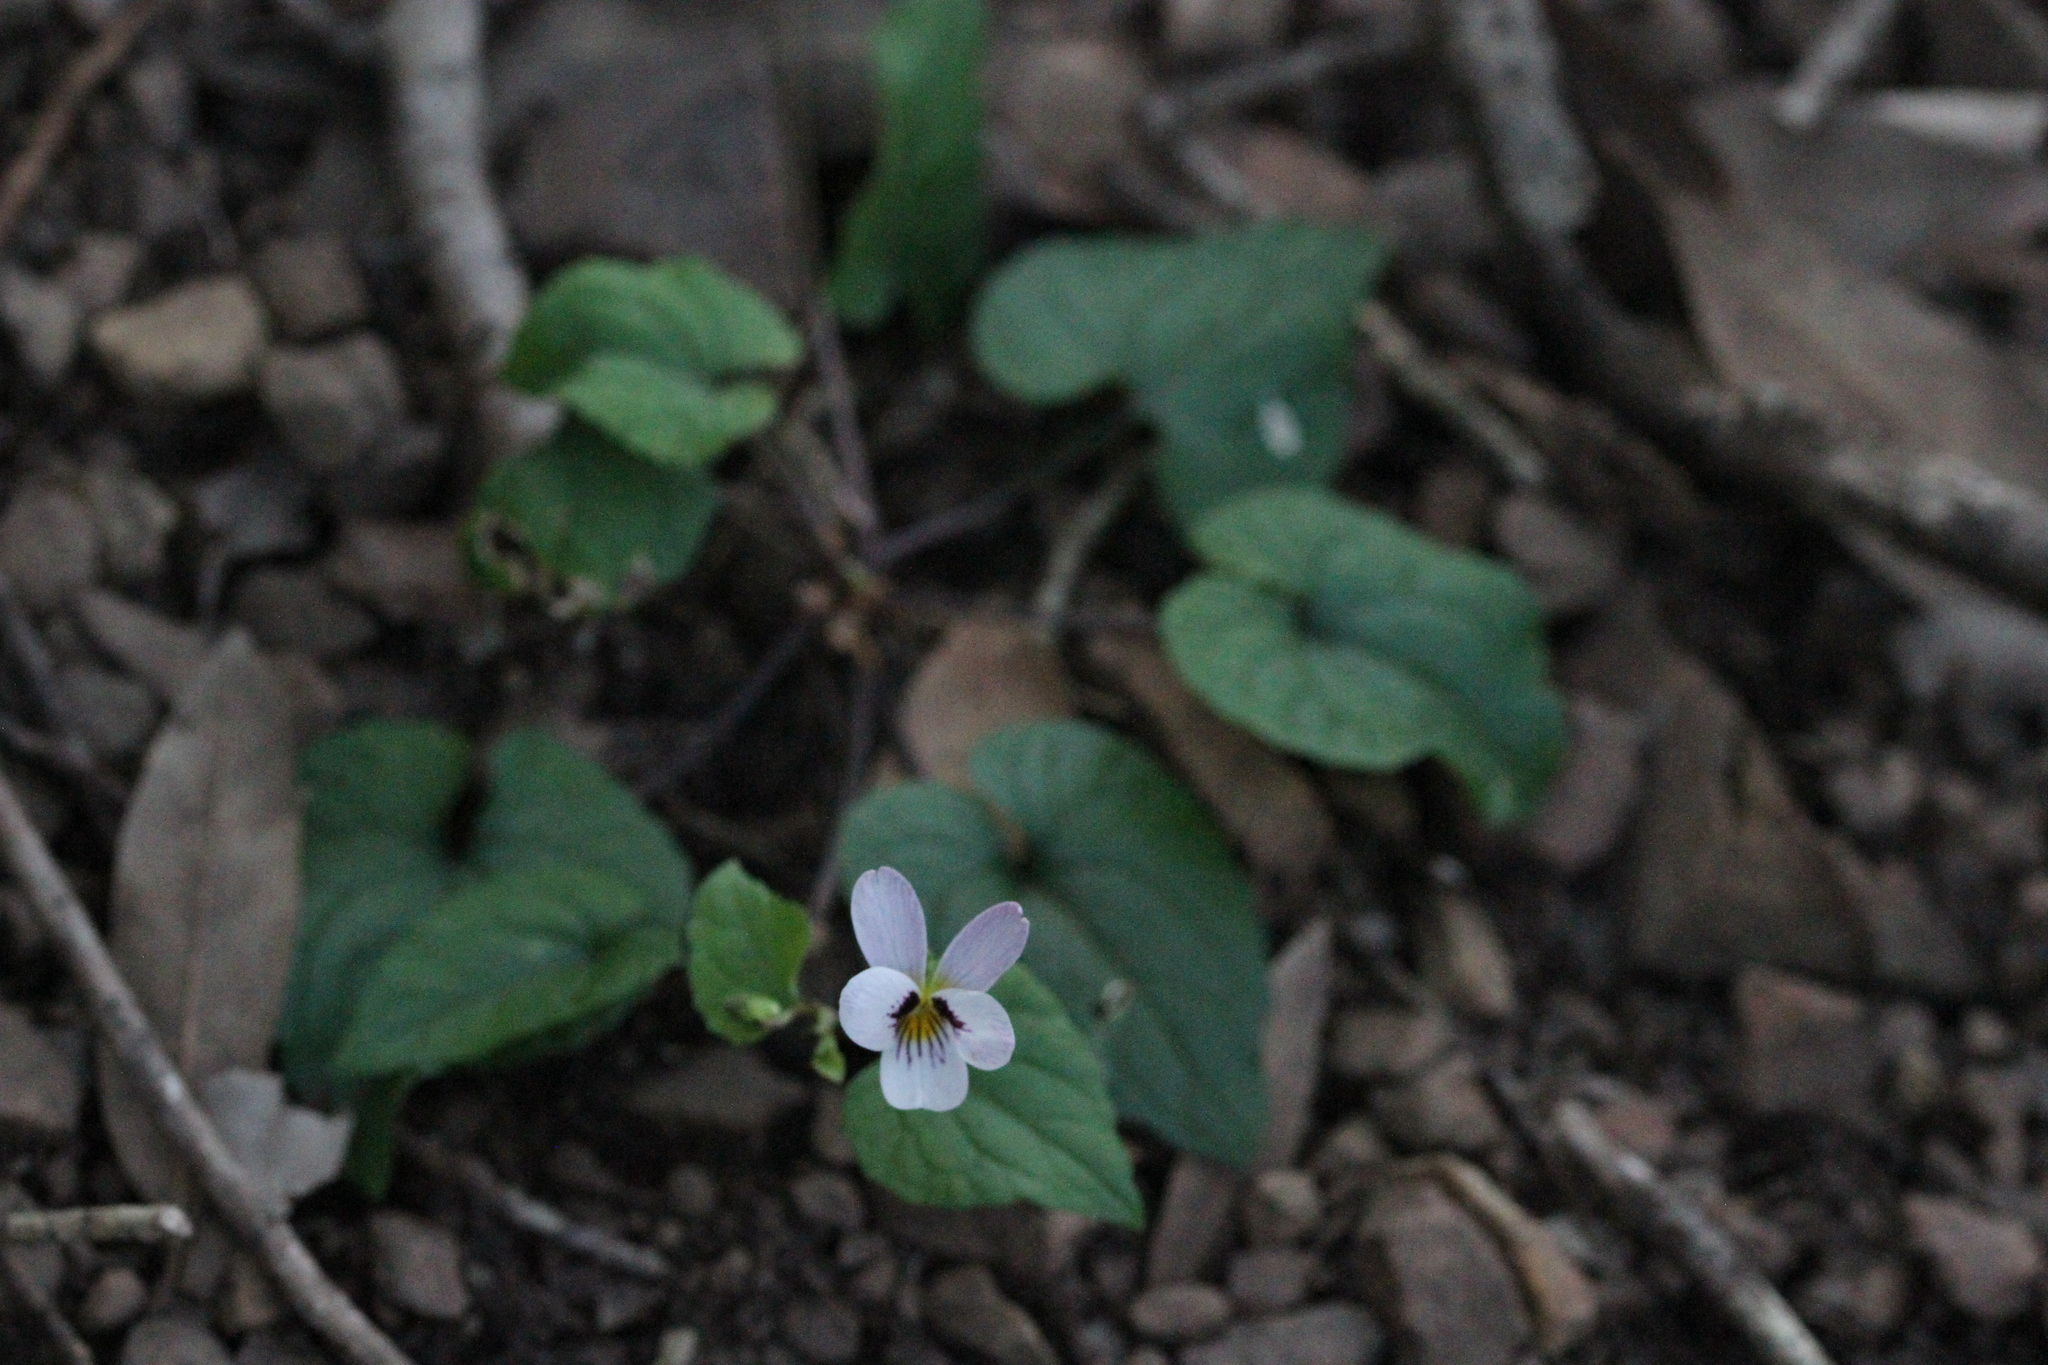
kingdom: Plantae
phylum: Tracheophyta
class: Magnoliopsida
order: Malpighiales
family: Violaceae
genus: Viola
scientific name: Viola ocellata
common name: Western heart's ease
